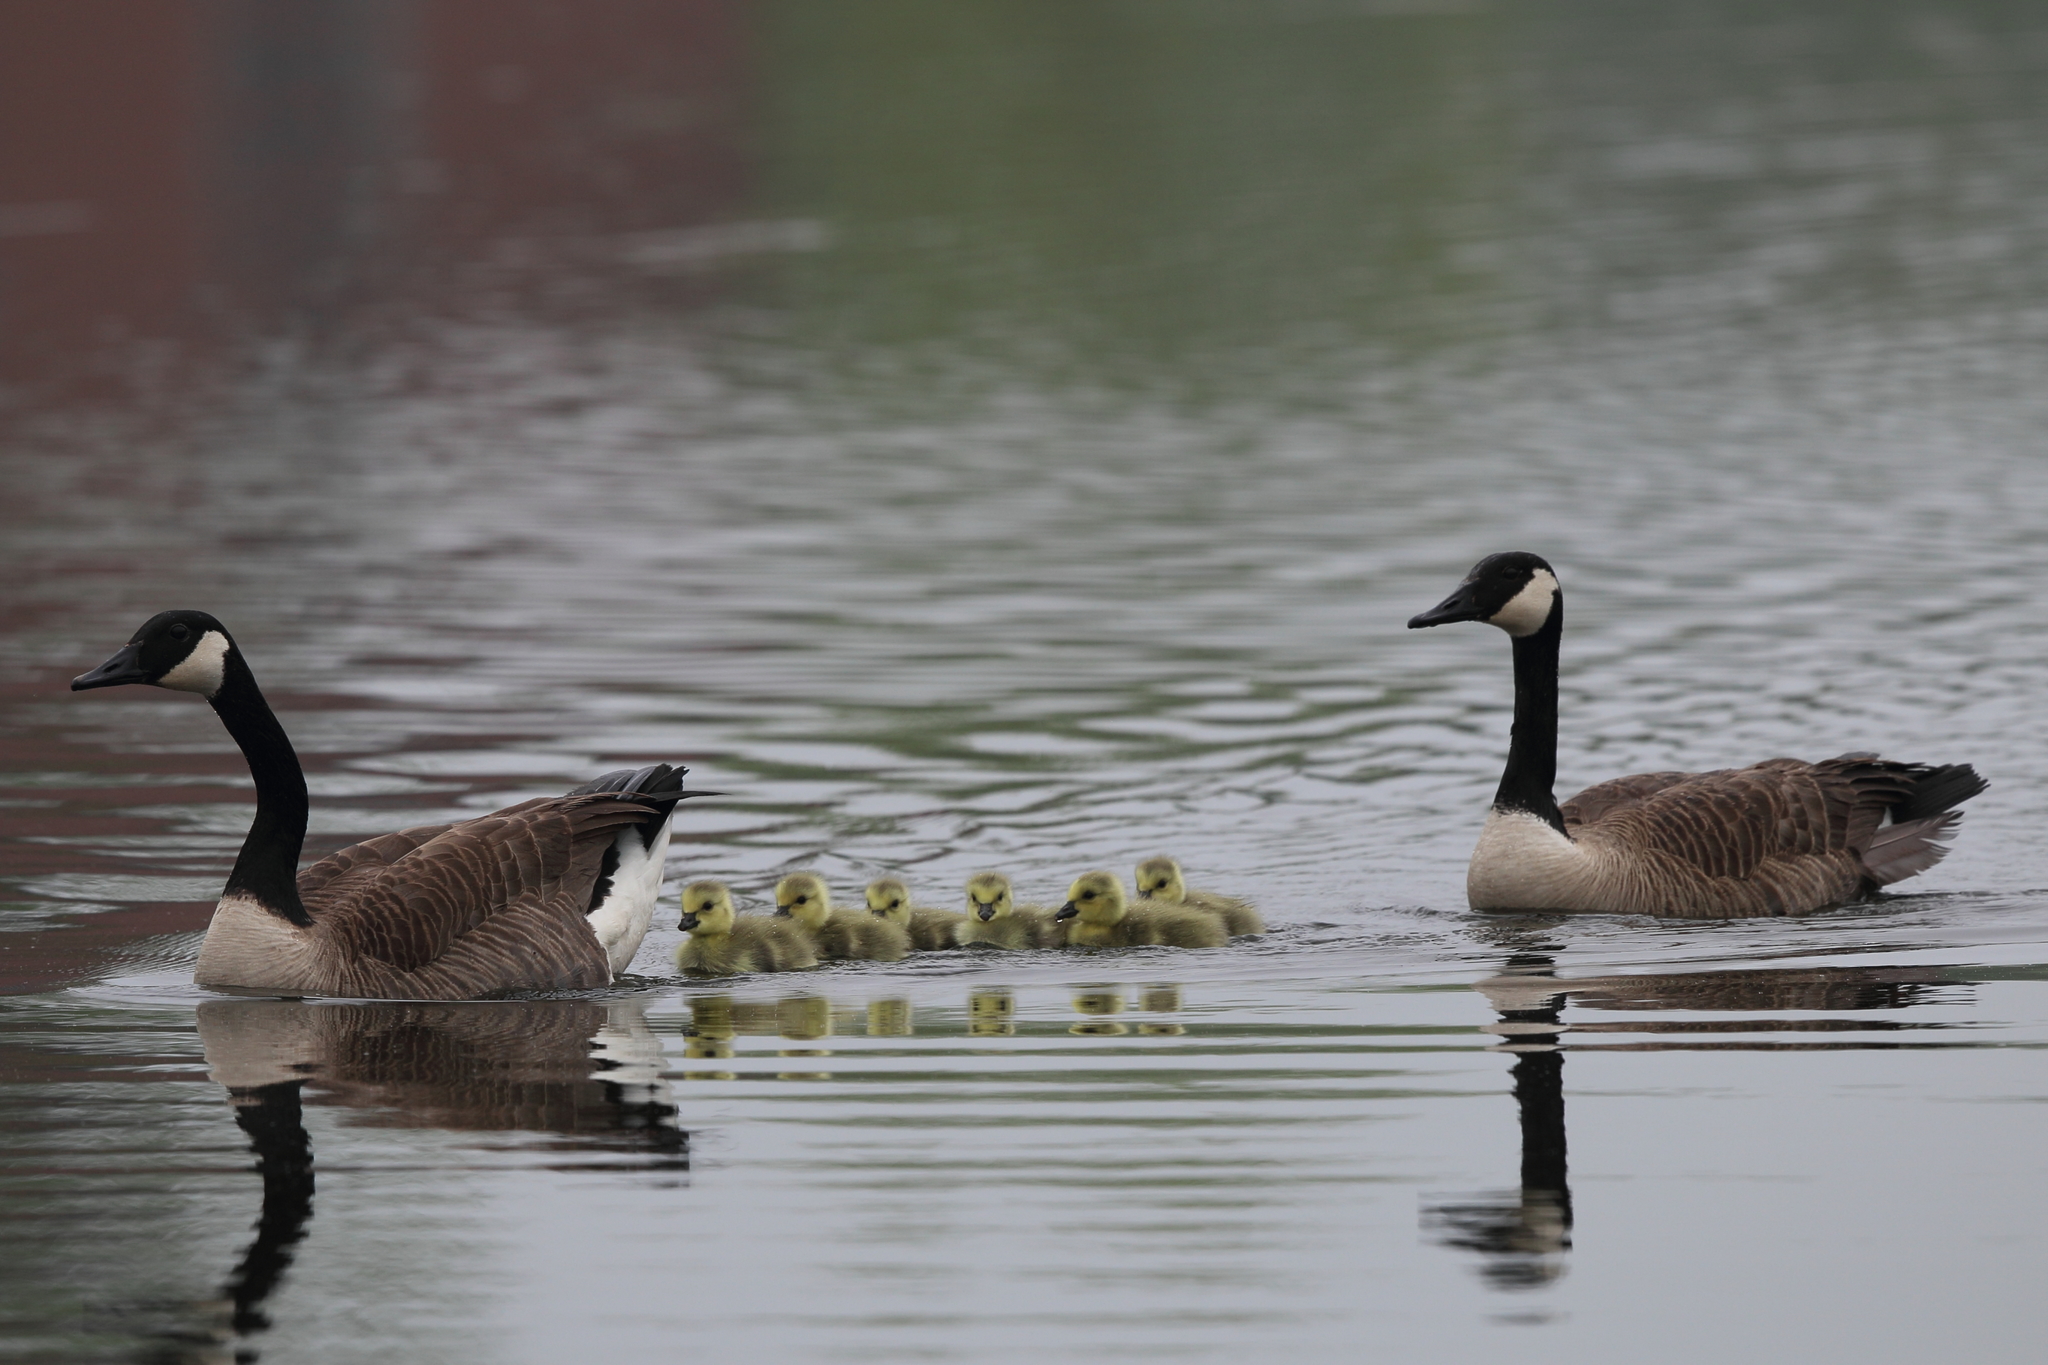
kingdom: Animalia
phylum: Chordata
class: Aves
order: Anseriformes
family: Anatidae
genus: Branta
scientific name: Branta canadensis
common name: Canada goose
